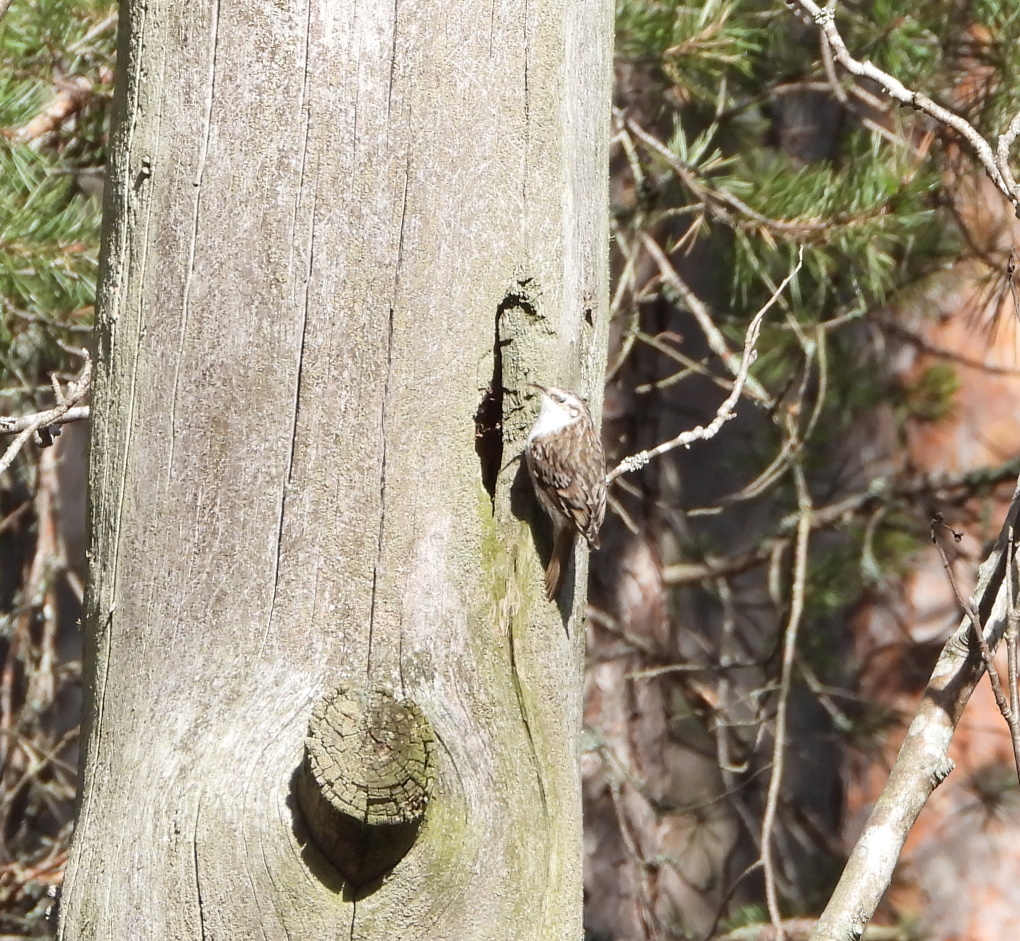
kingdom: Animalia
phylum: Chordata
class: Aves
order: Passeriformes
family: Certhiidae
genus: Certhia
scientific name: Certhia familiaris
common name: Eurasian treecreeper
